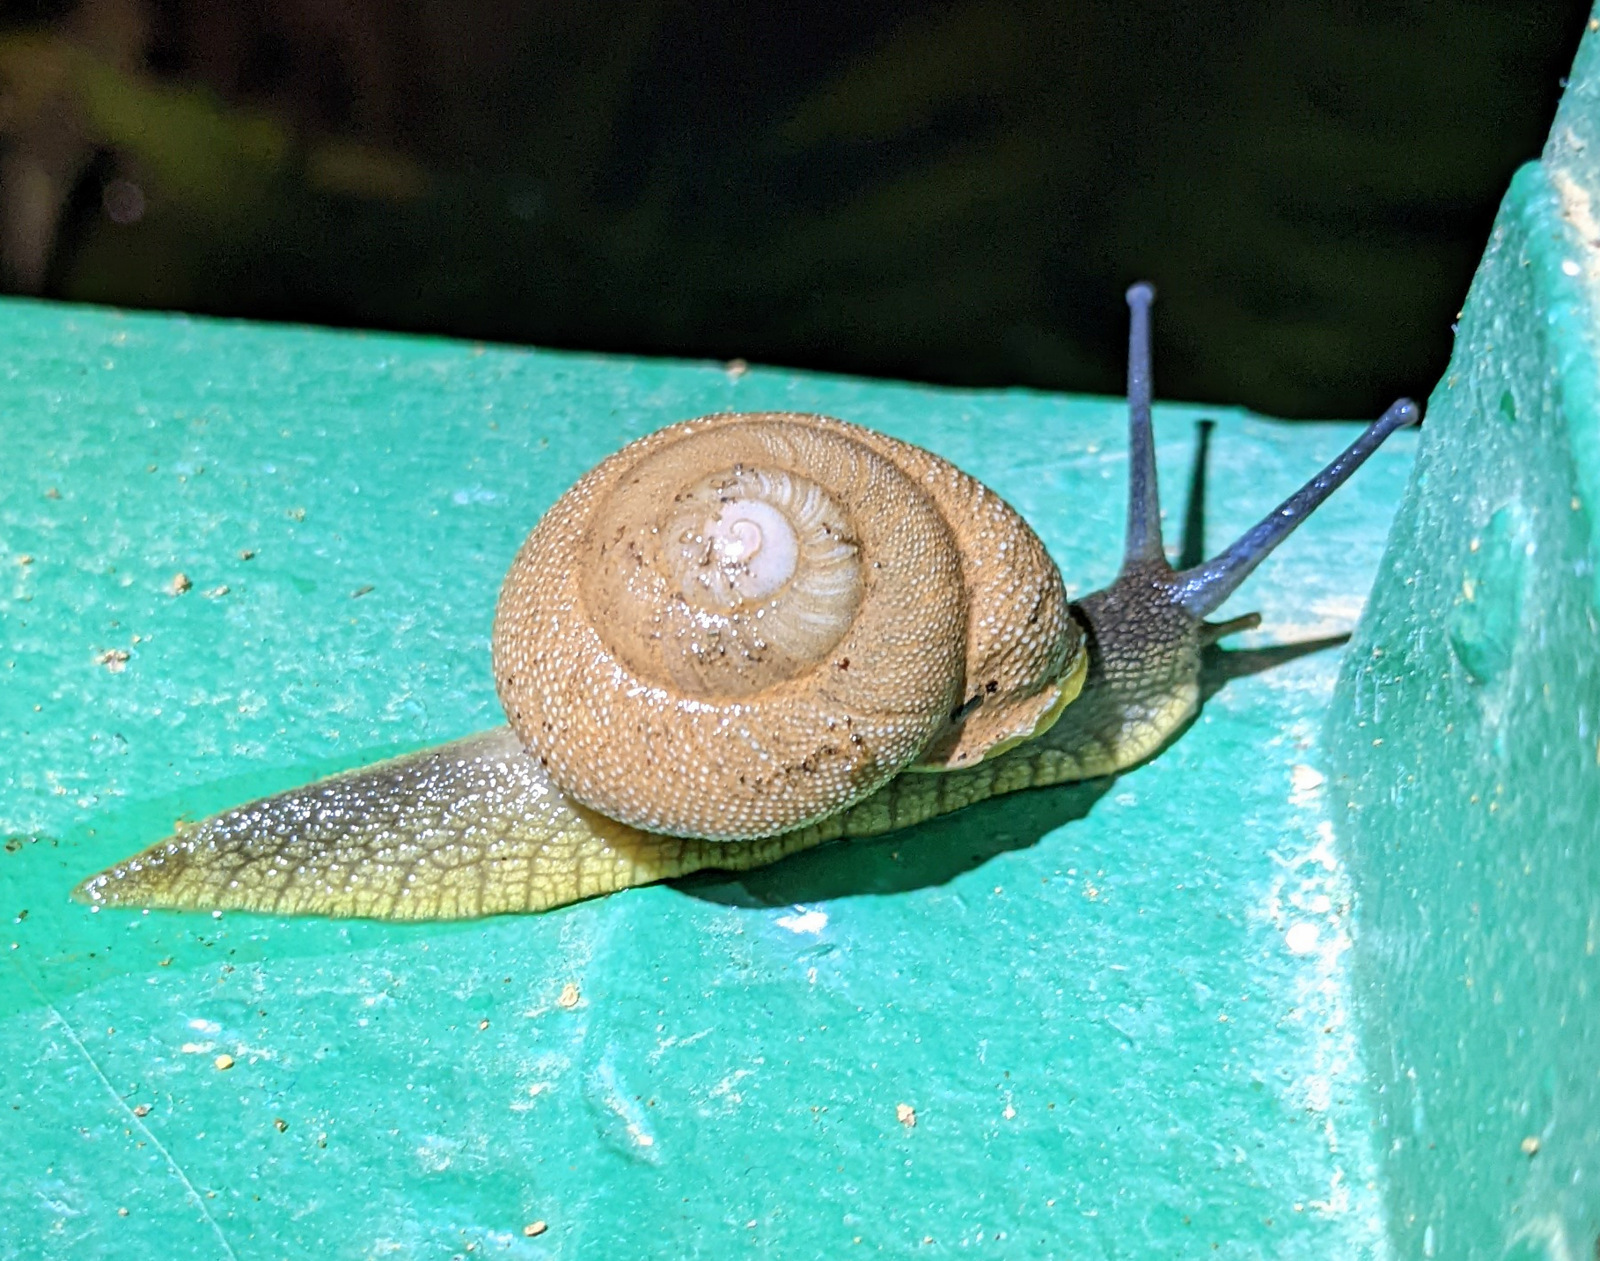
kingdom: Animalia
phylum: Mollusca
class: Gastropoda
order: Stylommatophora
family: Sagdidae
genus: Granodomus
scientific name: Granodomus lima
